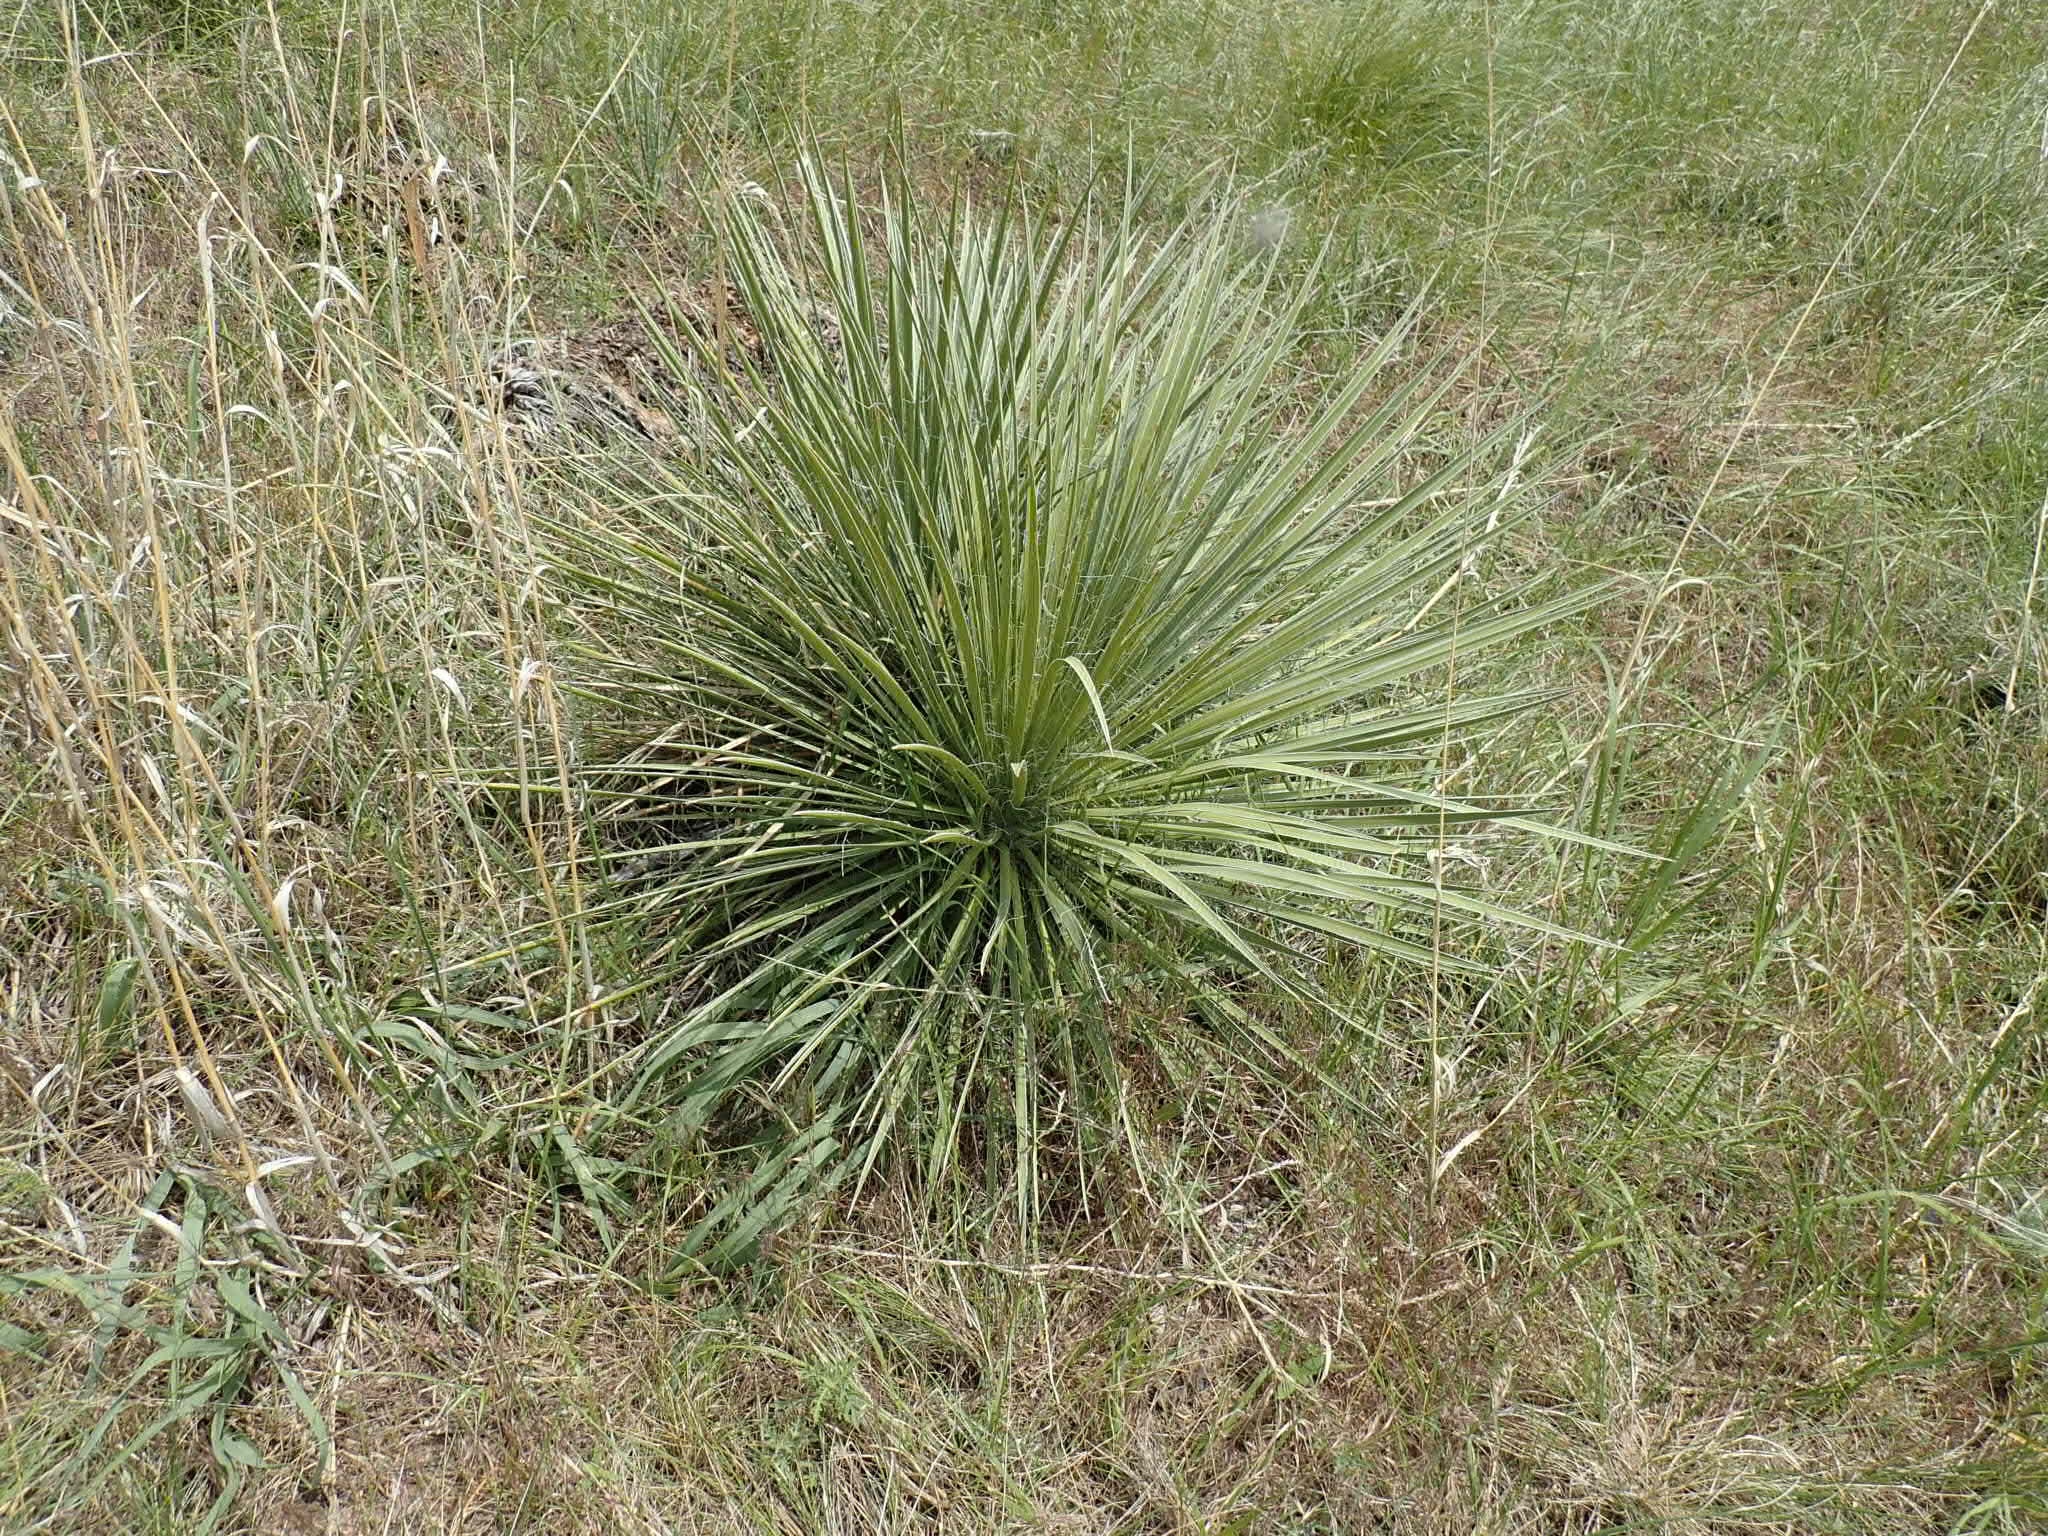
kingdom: Plantae
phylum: Tracheophyta
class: Liliopsida
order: Asparagales
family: Asparagaceae
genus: Yucca
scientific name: Yucca glauca
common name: Great plains yucca
